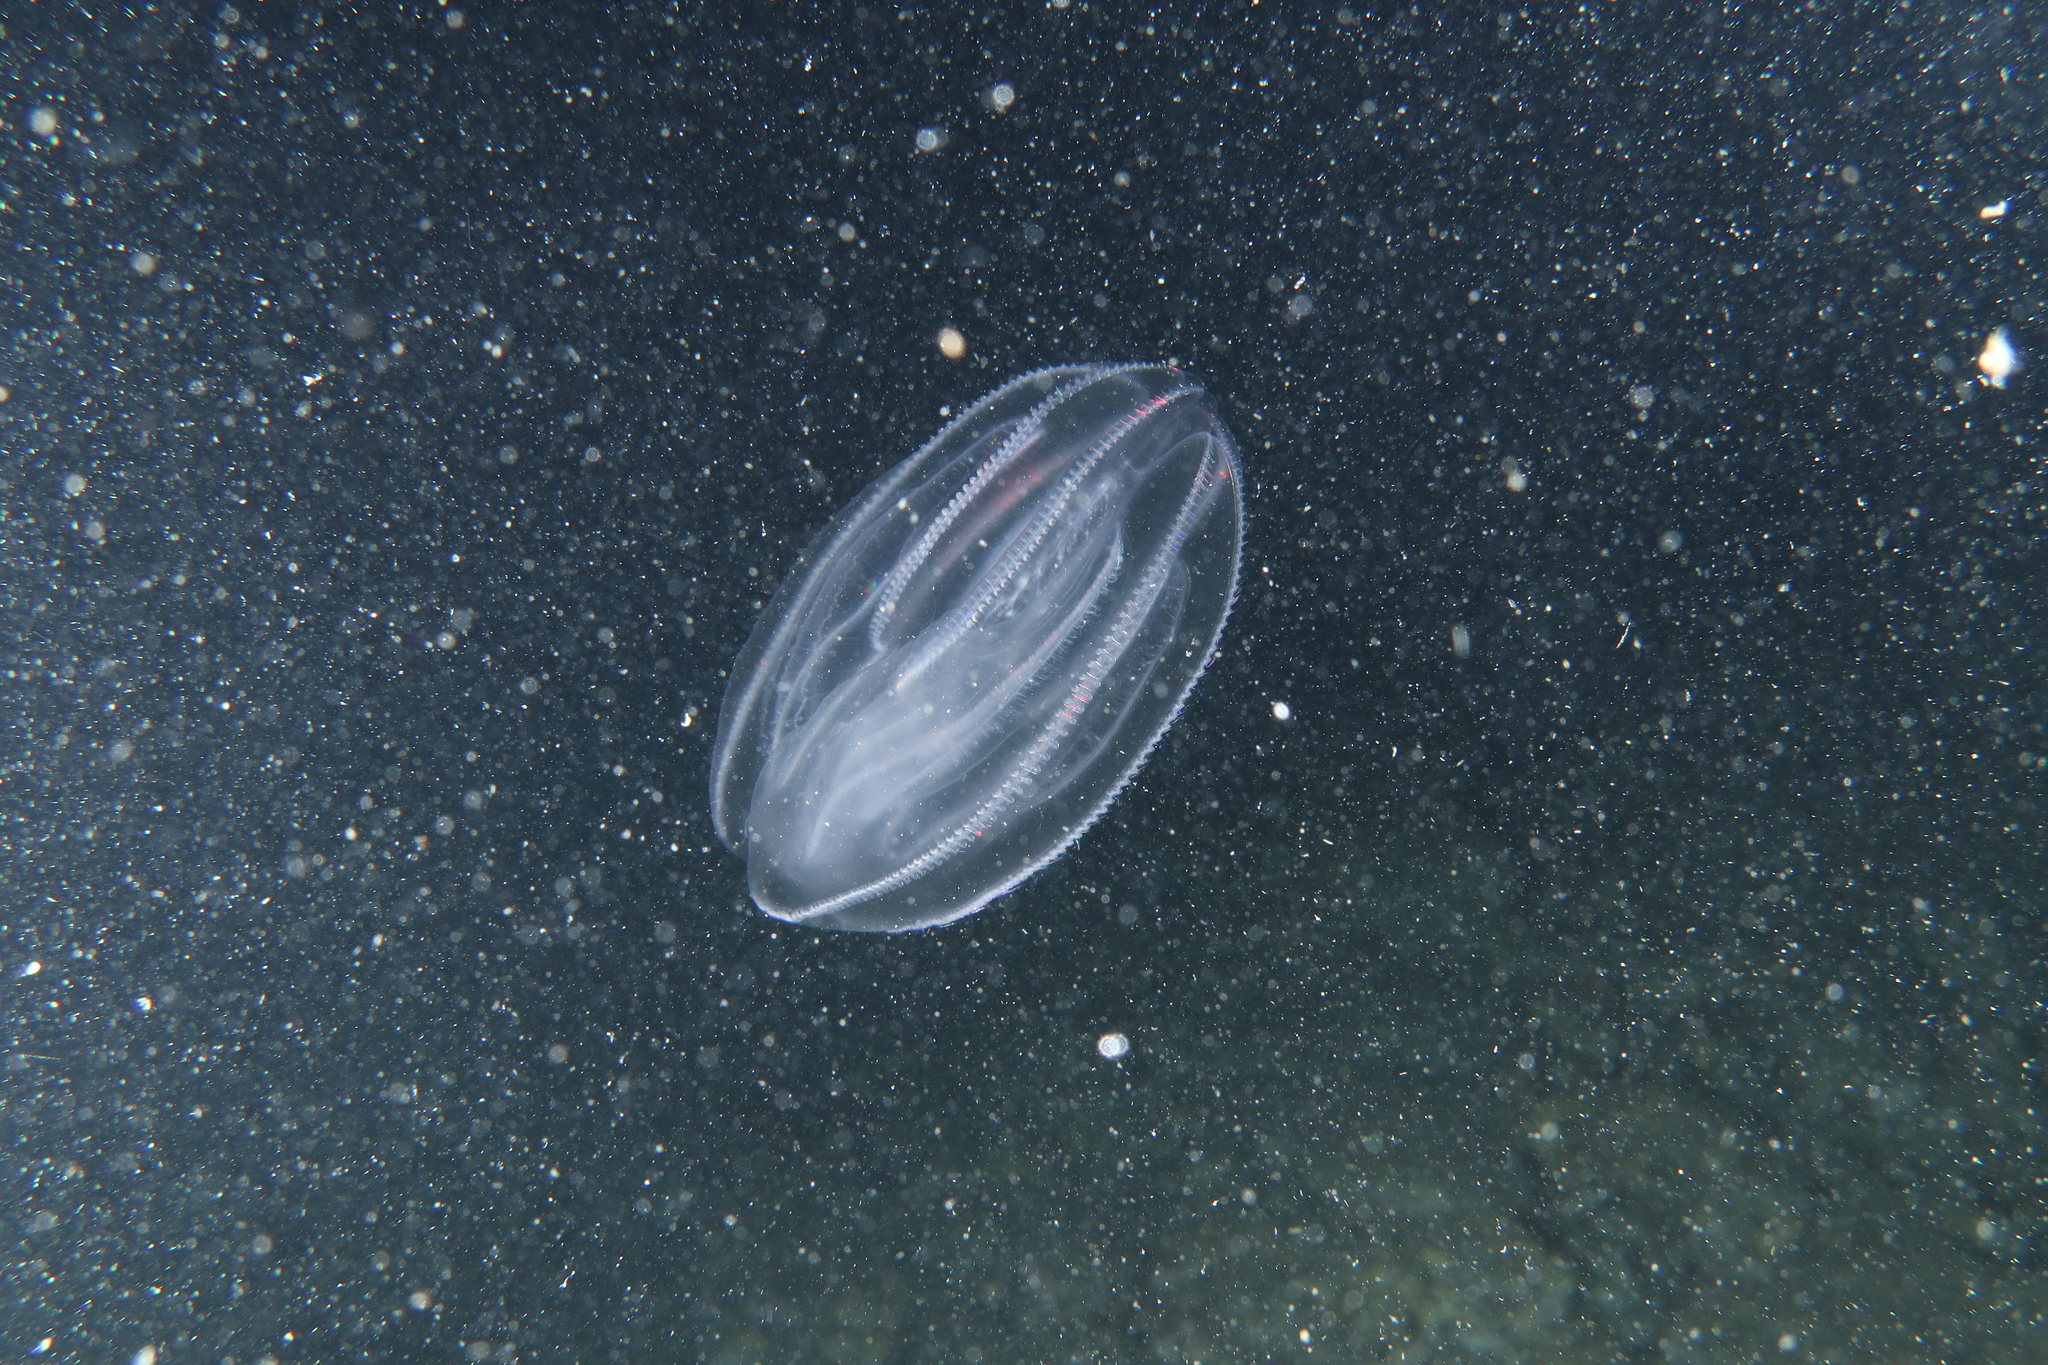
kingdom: Animalia
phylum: Ctenophora
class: Tentaculata
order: Lobata
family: Bolinopsidae
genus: Mnemiopsis
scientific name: Mnemiopsis leidyi
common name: American comb jelly
